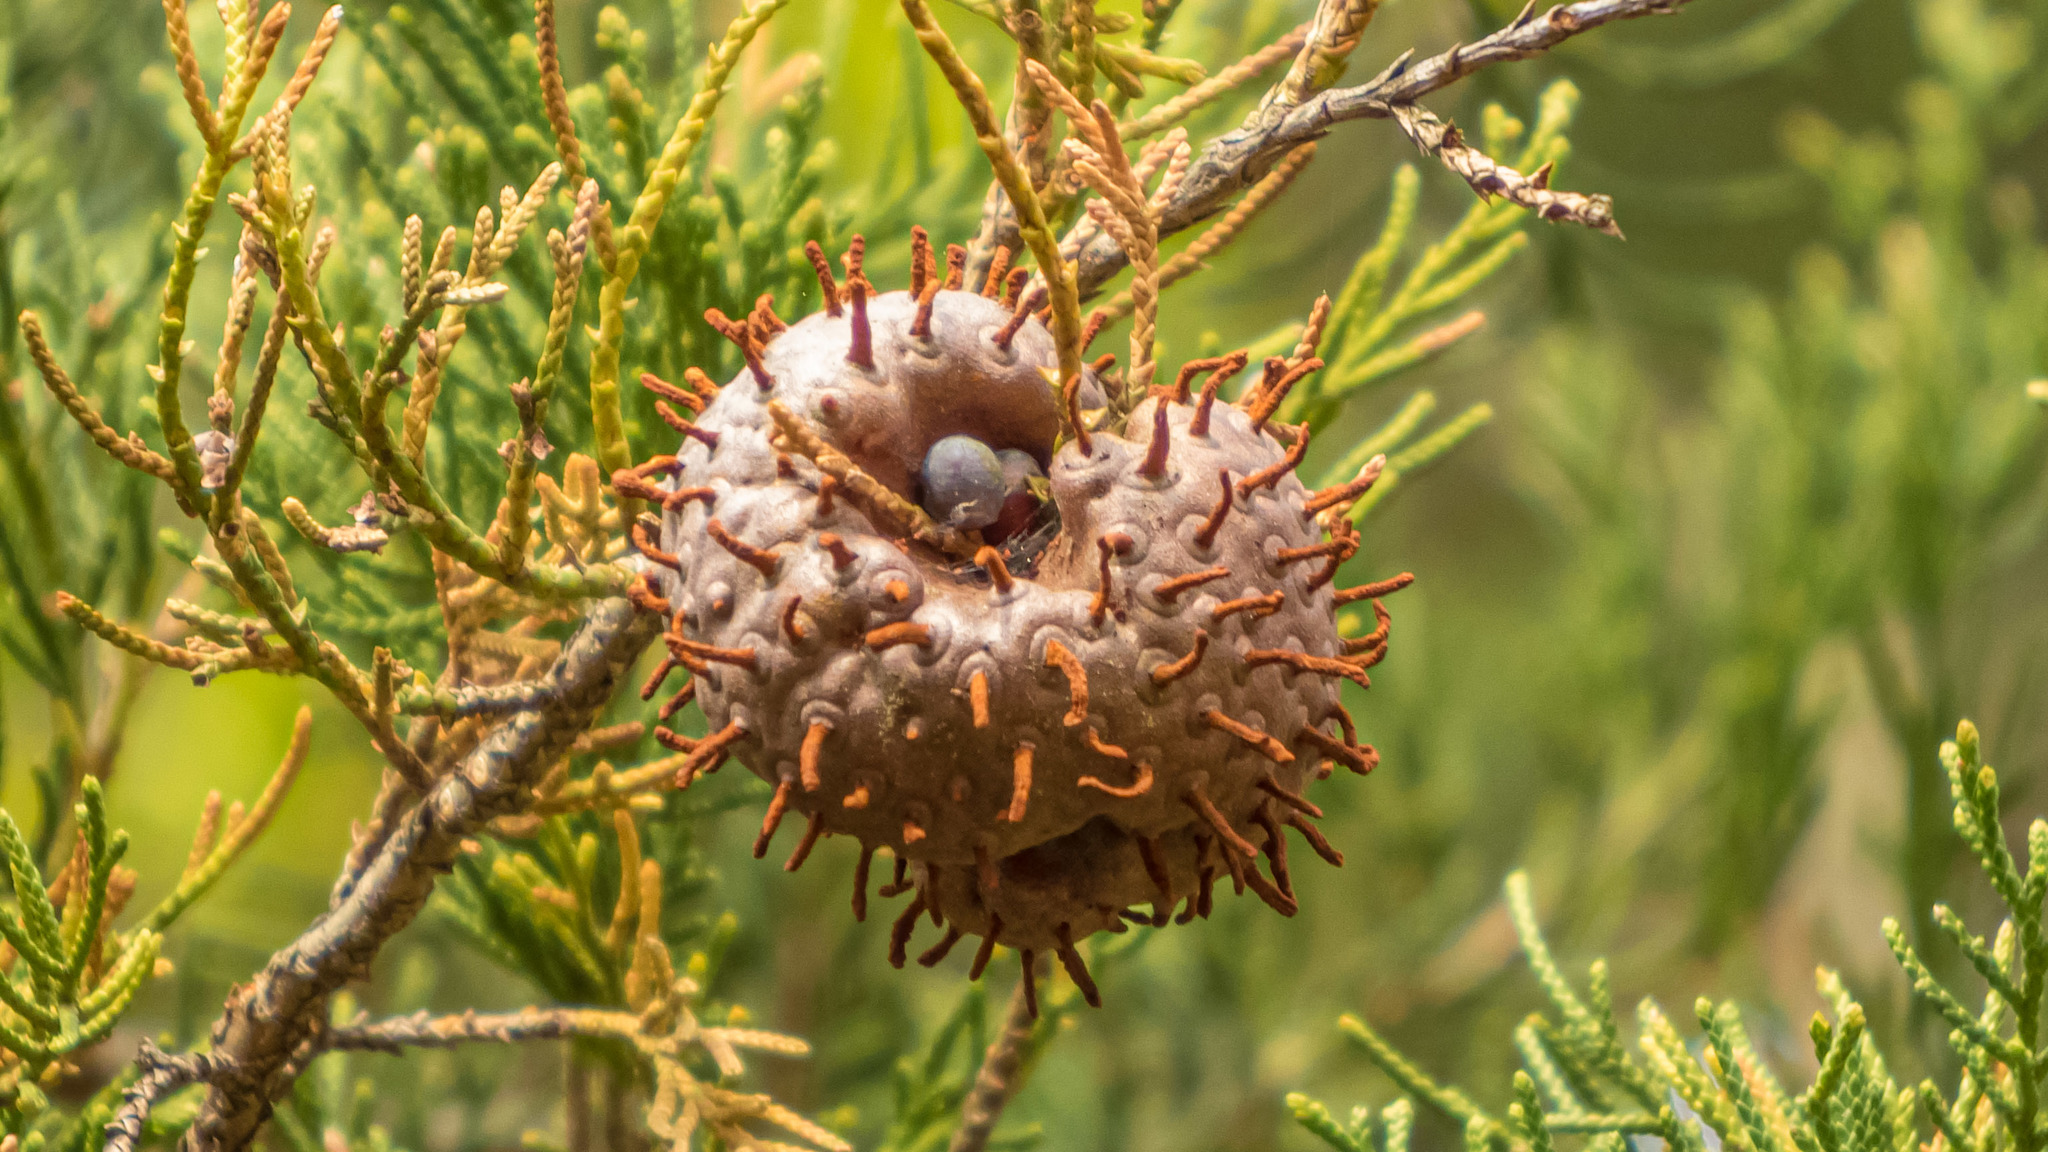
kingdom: Fungi
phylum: Basidiomycota
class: Pucciniomycetes
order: Pucciniales
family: Gymnosporangiaceae
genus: Gymnosporangium
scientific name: Gymnosporangium juniperi-virginianae
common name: Juniper-apple rust
